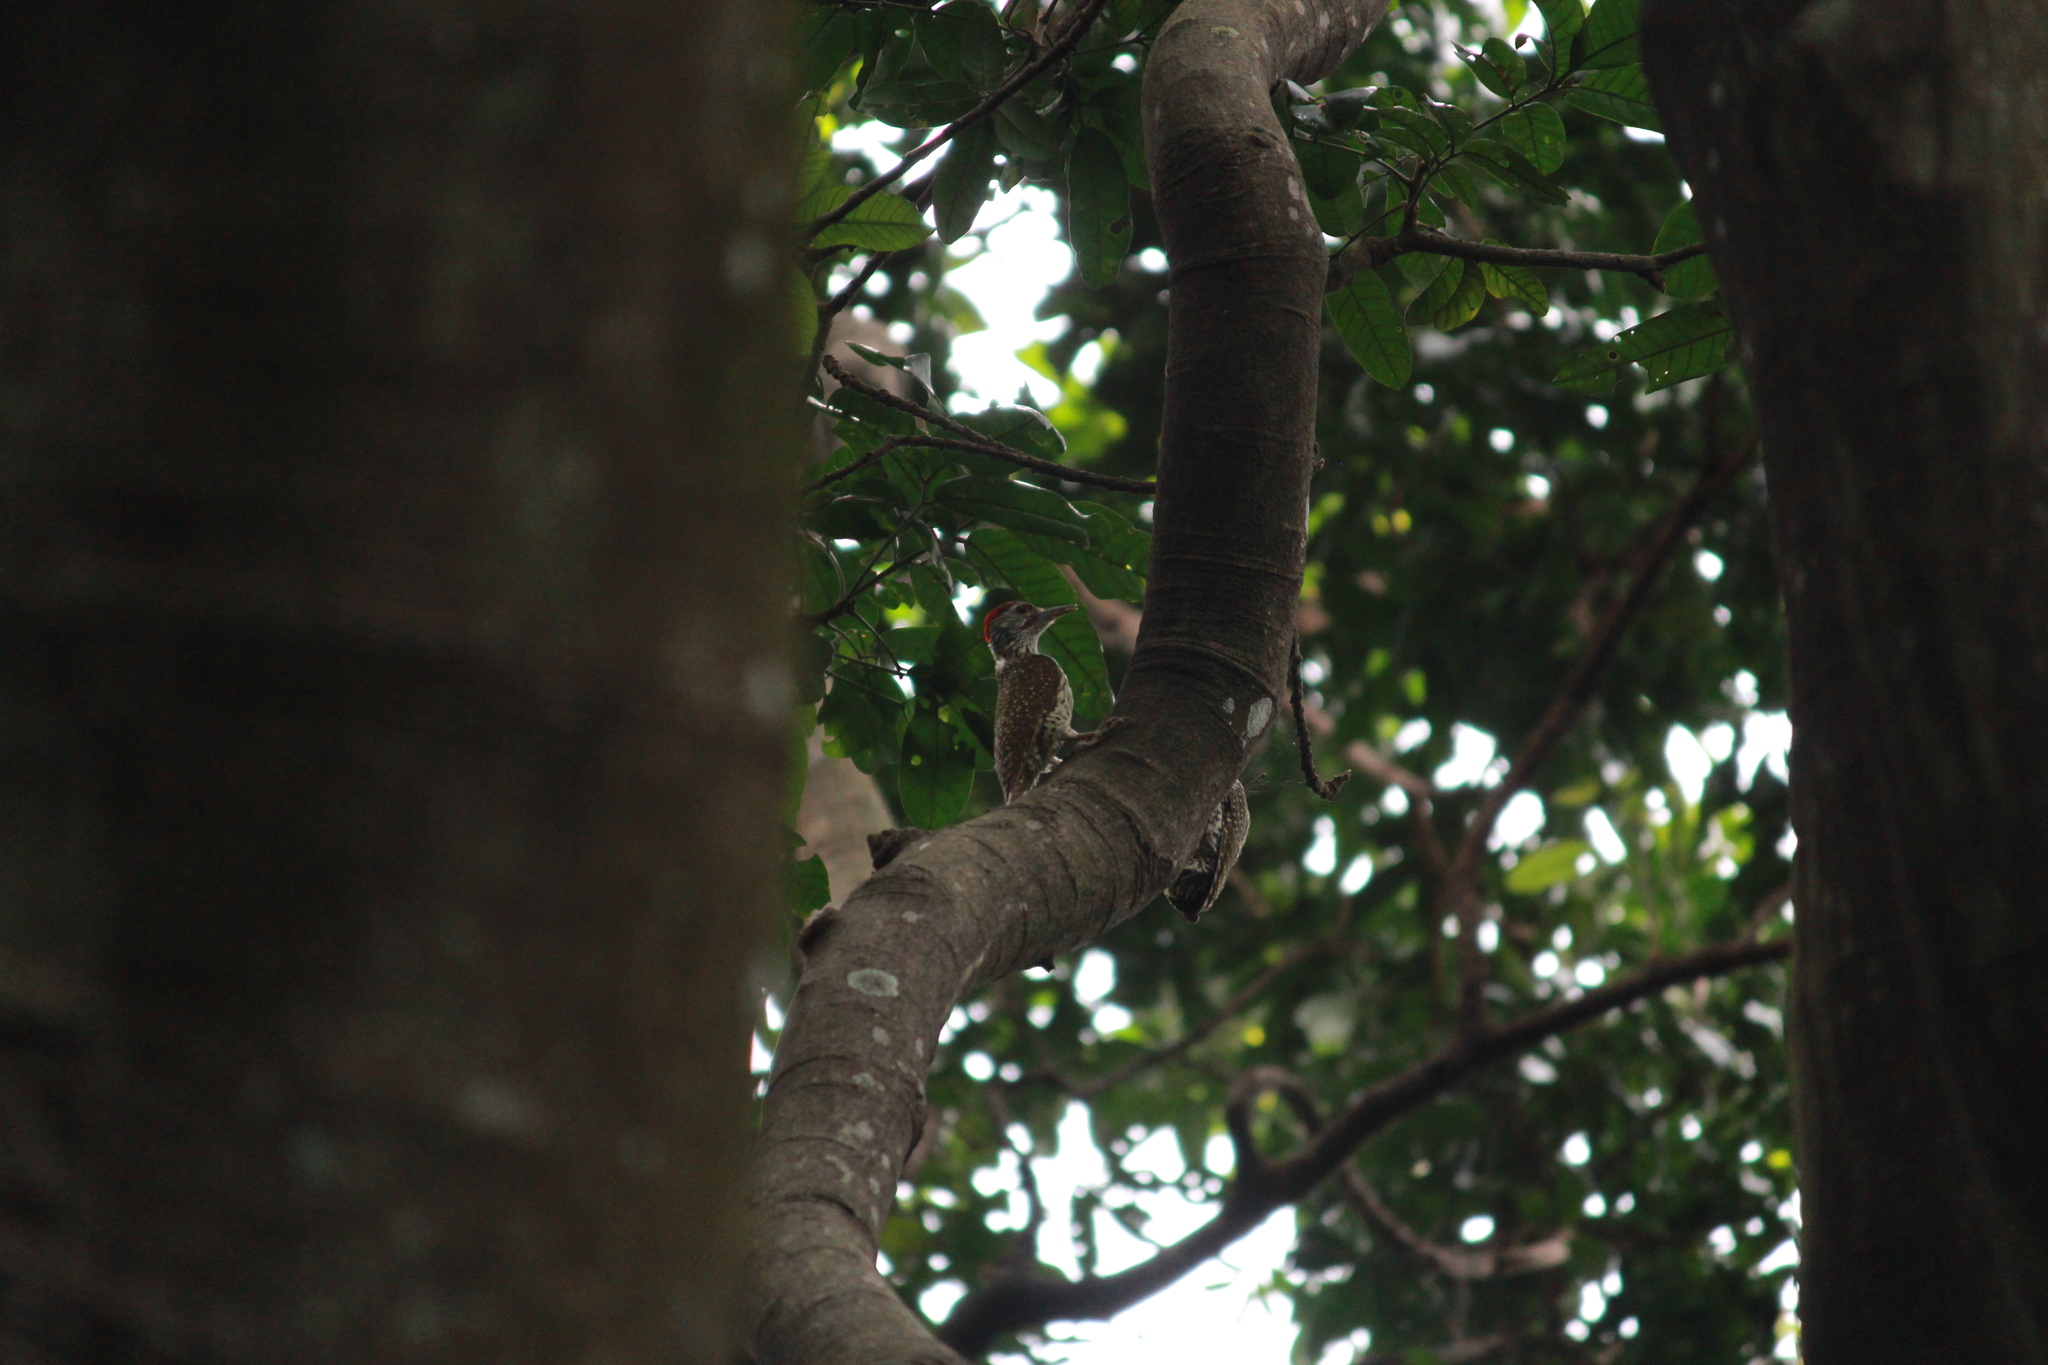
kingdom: Animalia
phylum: Chordata
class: Aves
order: Piciformes
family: Picidae
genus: Campethera
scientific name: Campethera abingoni
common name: Golden-tailed woodpecker
